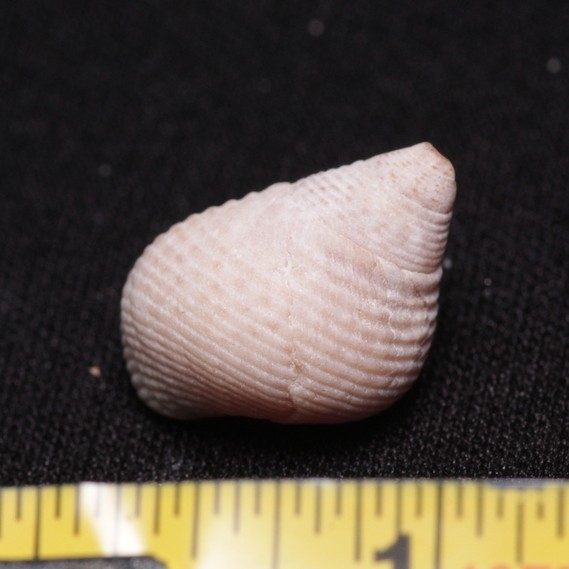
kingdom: Animalia
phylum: Mollusca
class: Gastropoda
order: Littorinimorpha
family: Littorinidae
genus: Littoraria
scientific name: Littoraria irrorata
